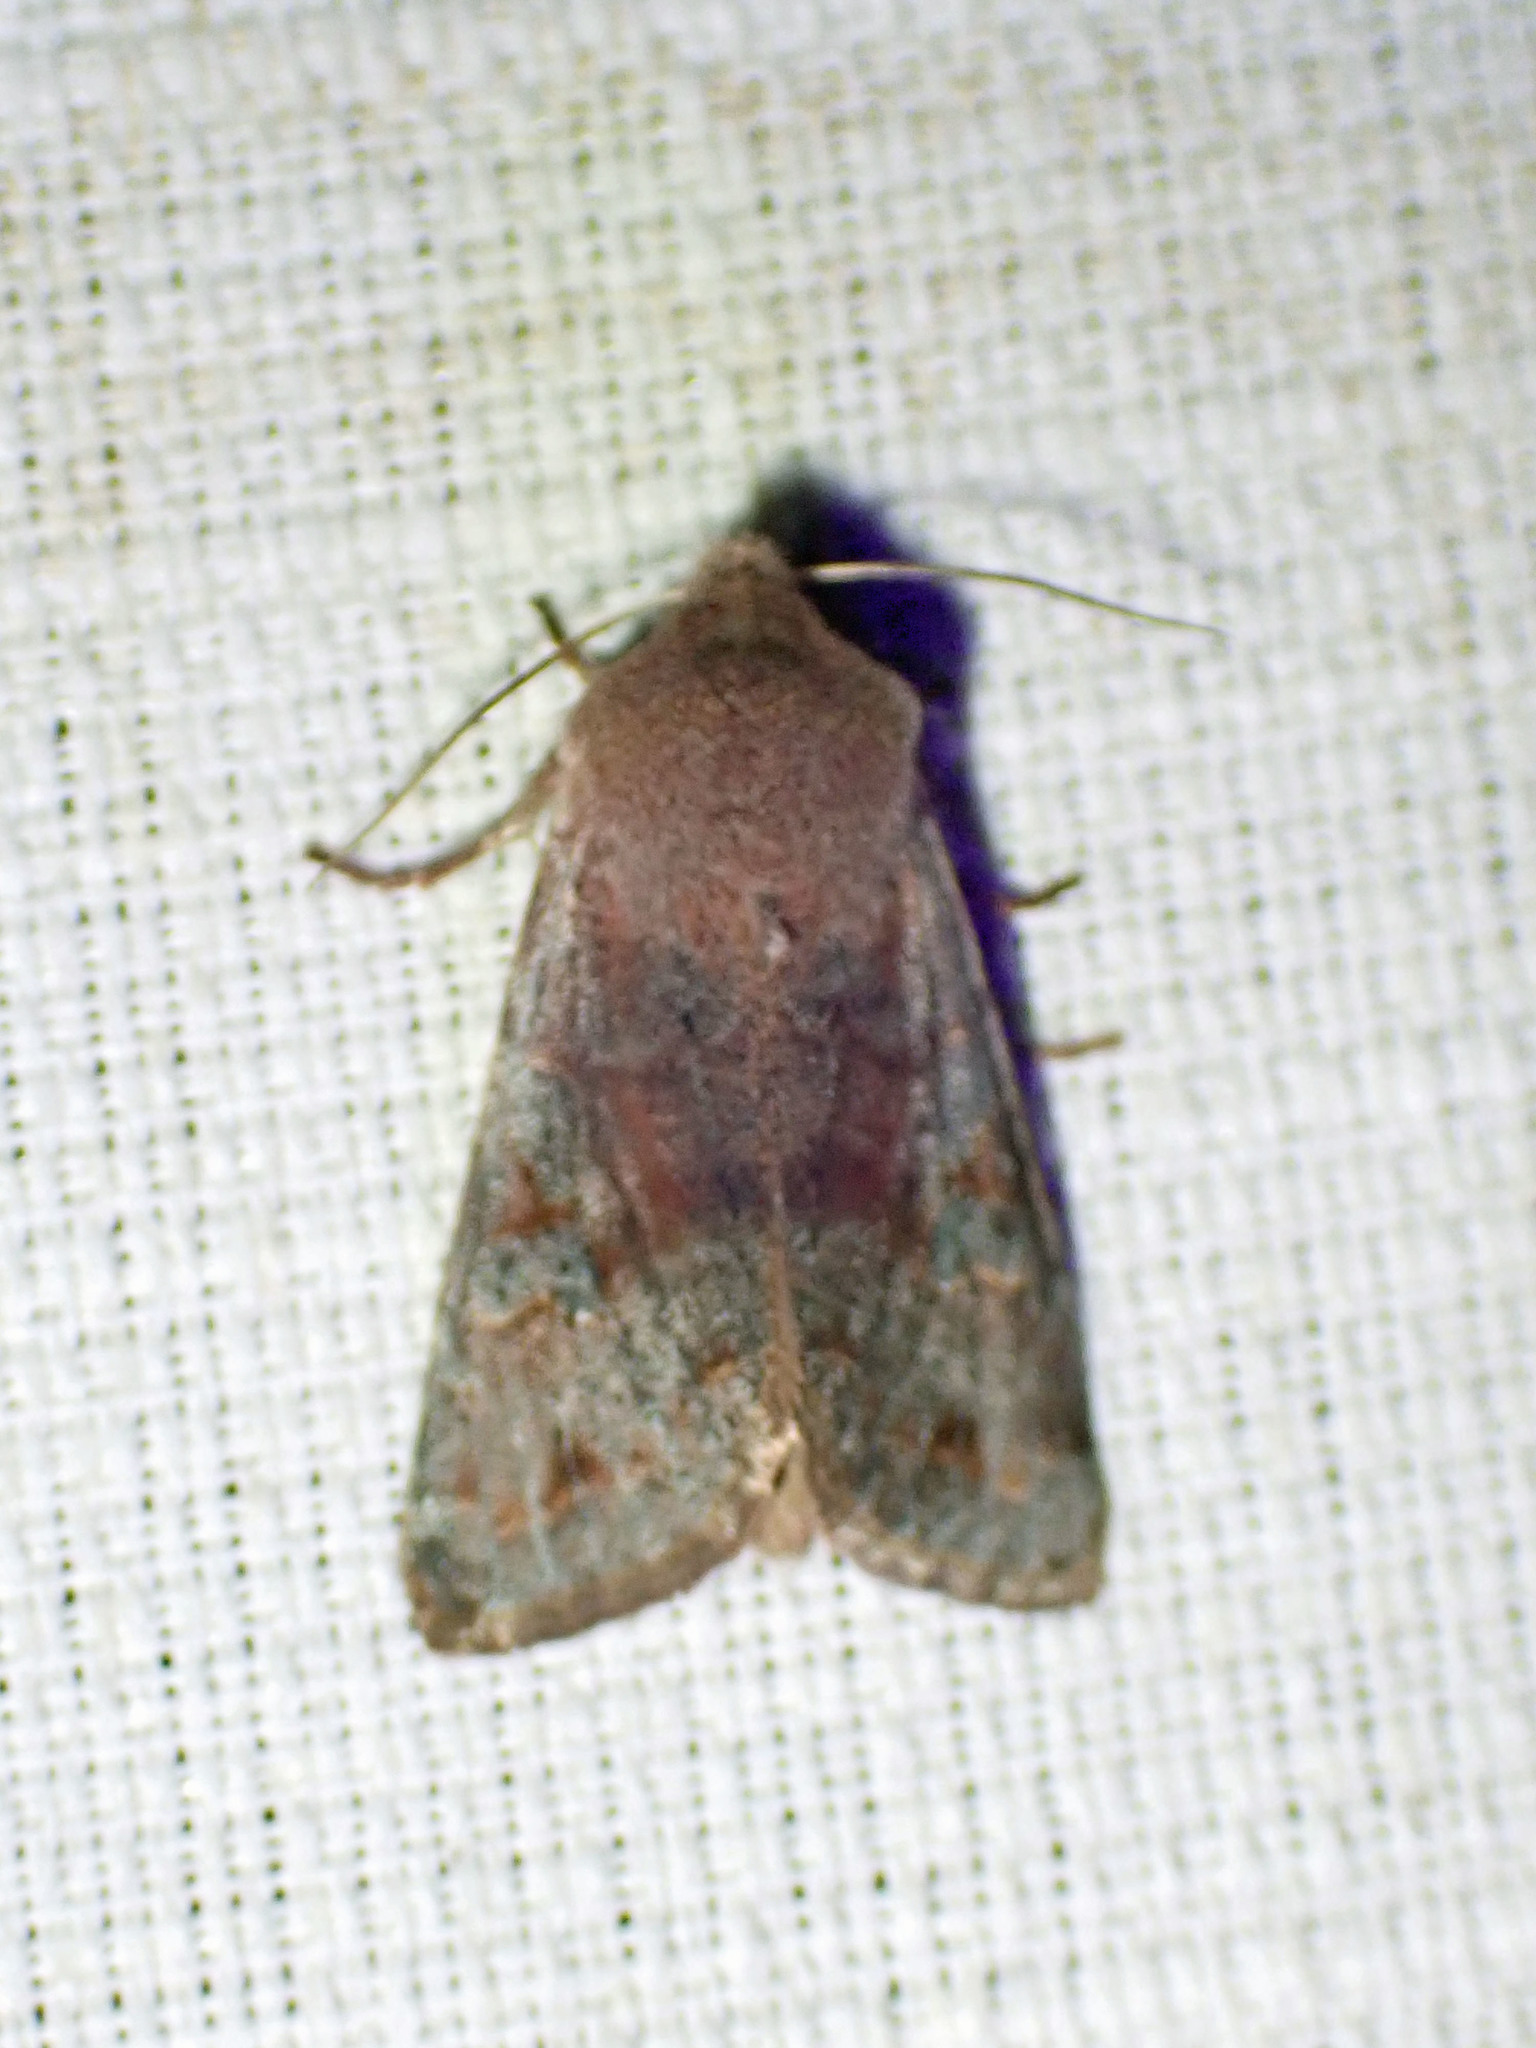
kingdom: Animalia
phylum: Arthropoda
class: Insecta
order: Lepidoptera
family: Noctuidae
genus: Orthosia
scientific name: Orthosia hibisci
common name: Green fruitworm
